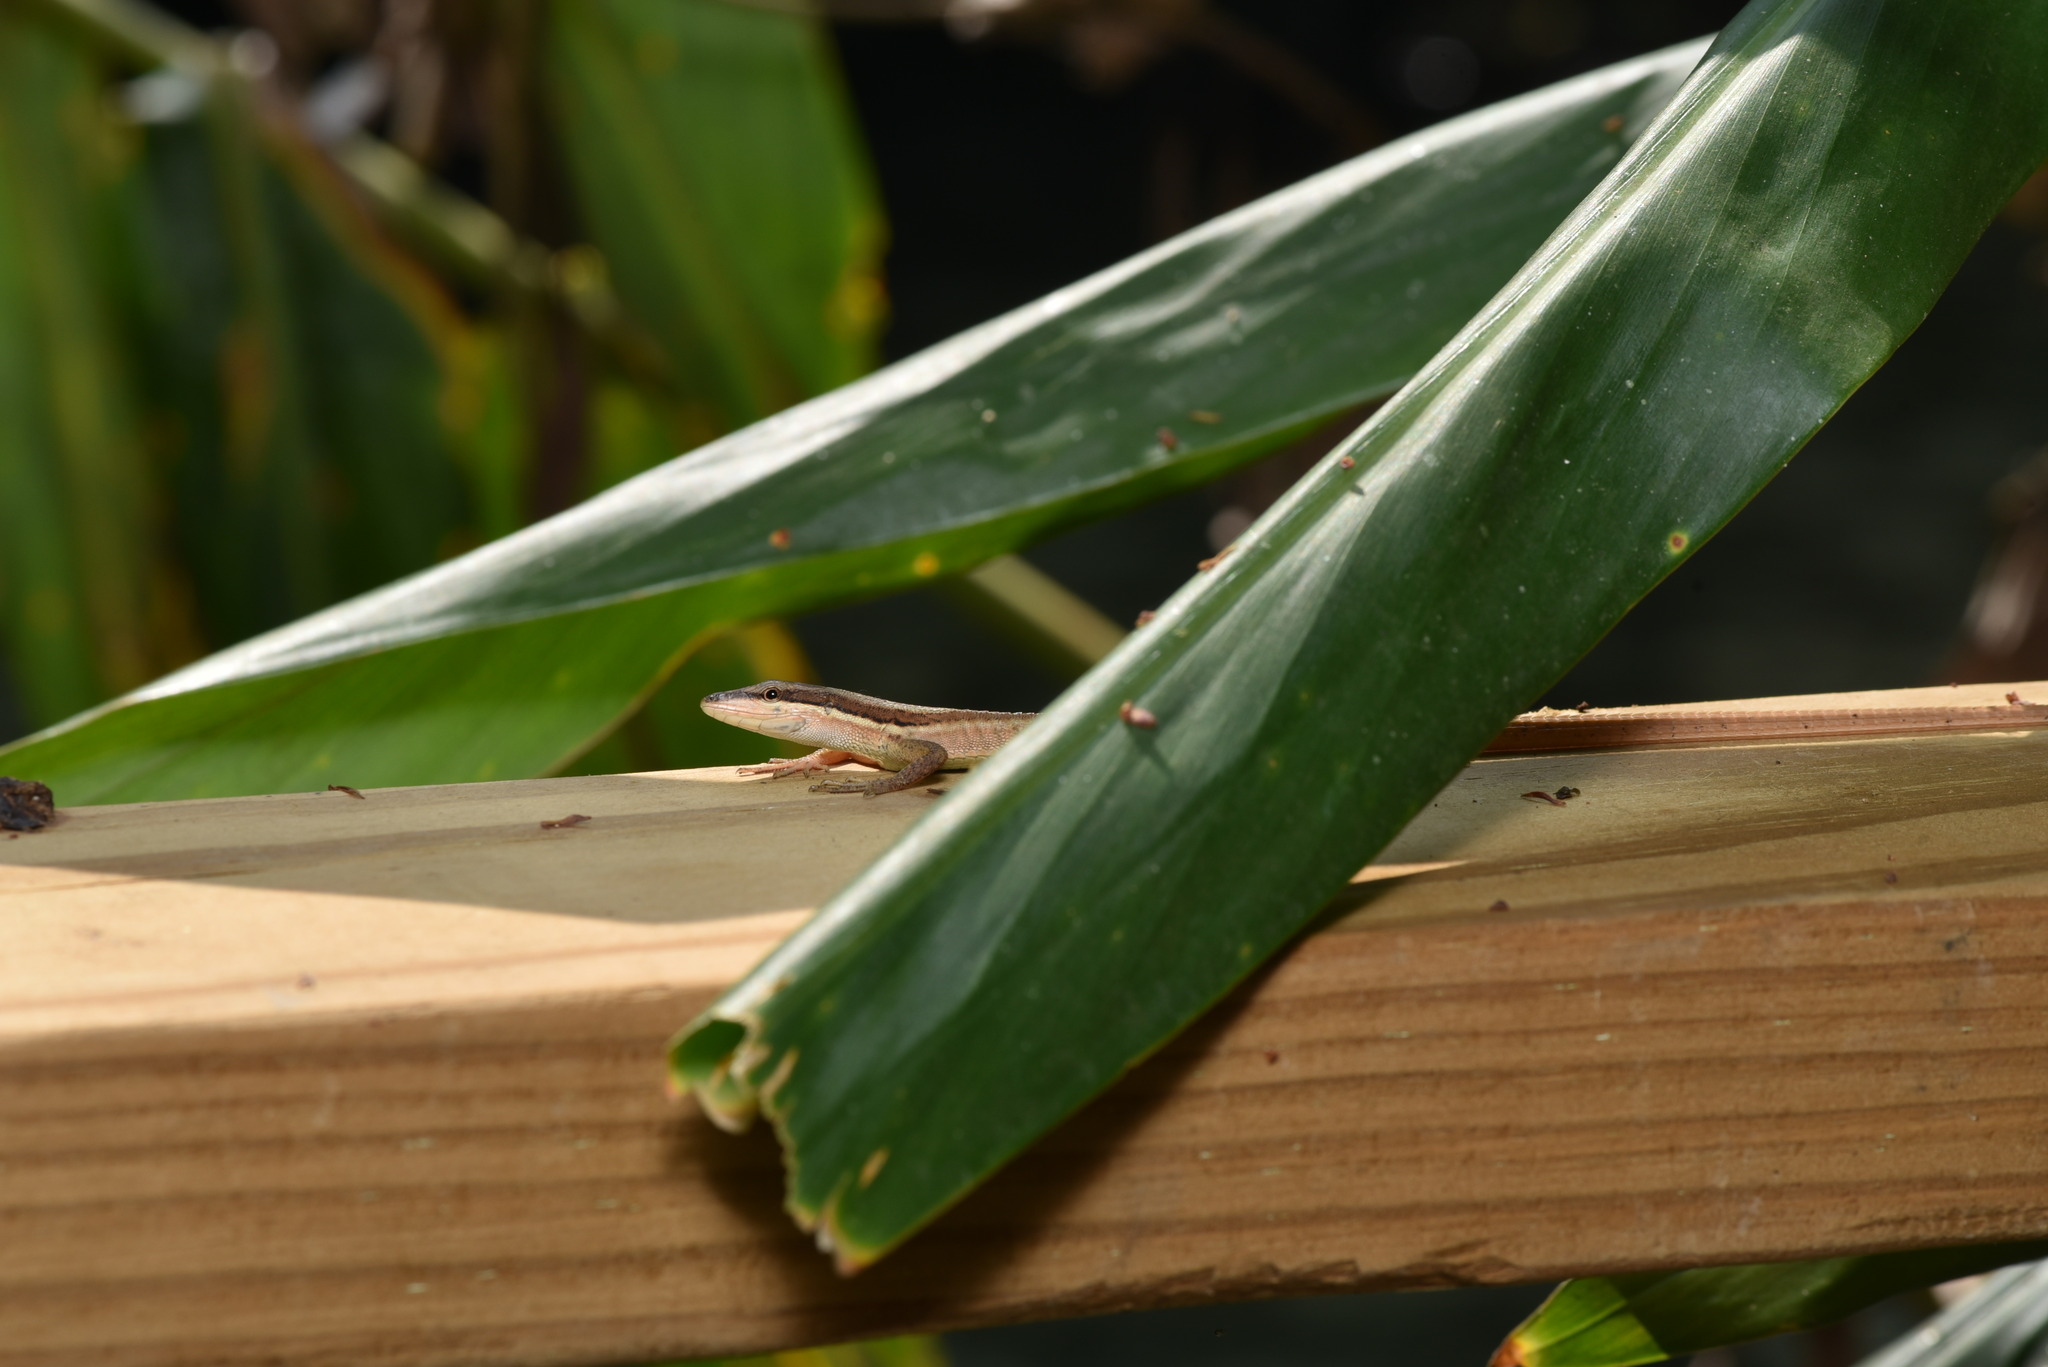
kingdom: Animalia
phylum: Chordata
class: Squamata
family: Lacertidae
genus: Takydromus
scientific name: Takydromus kuehnei
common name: Kuhne’s grass lizard
